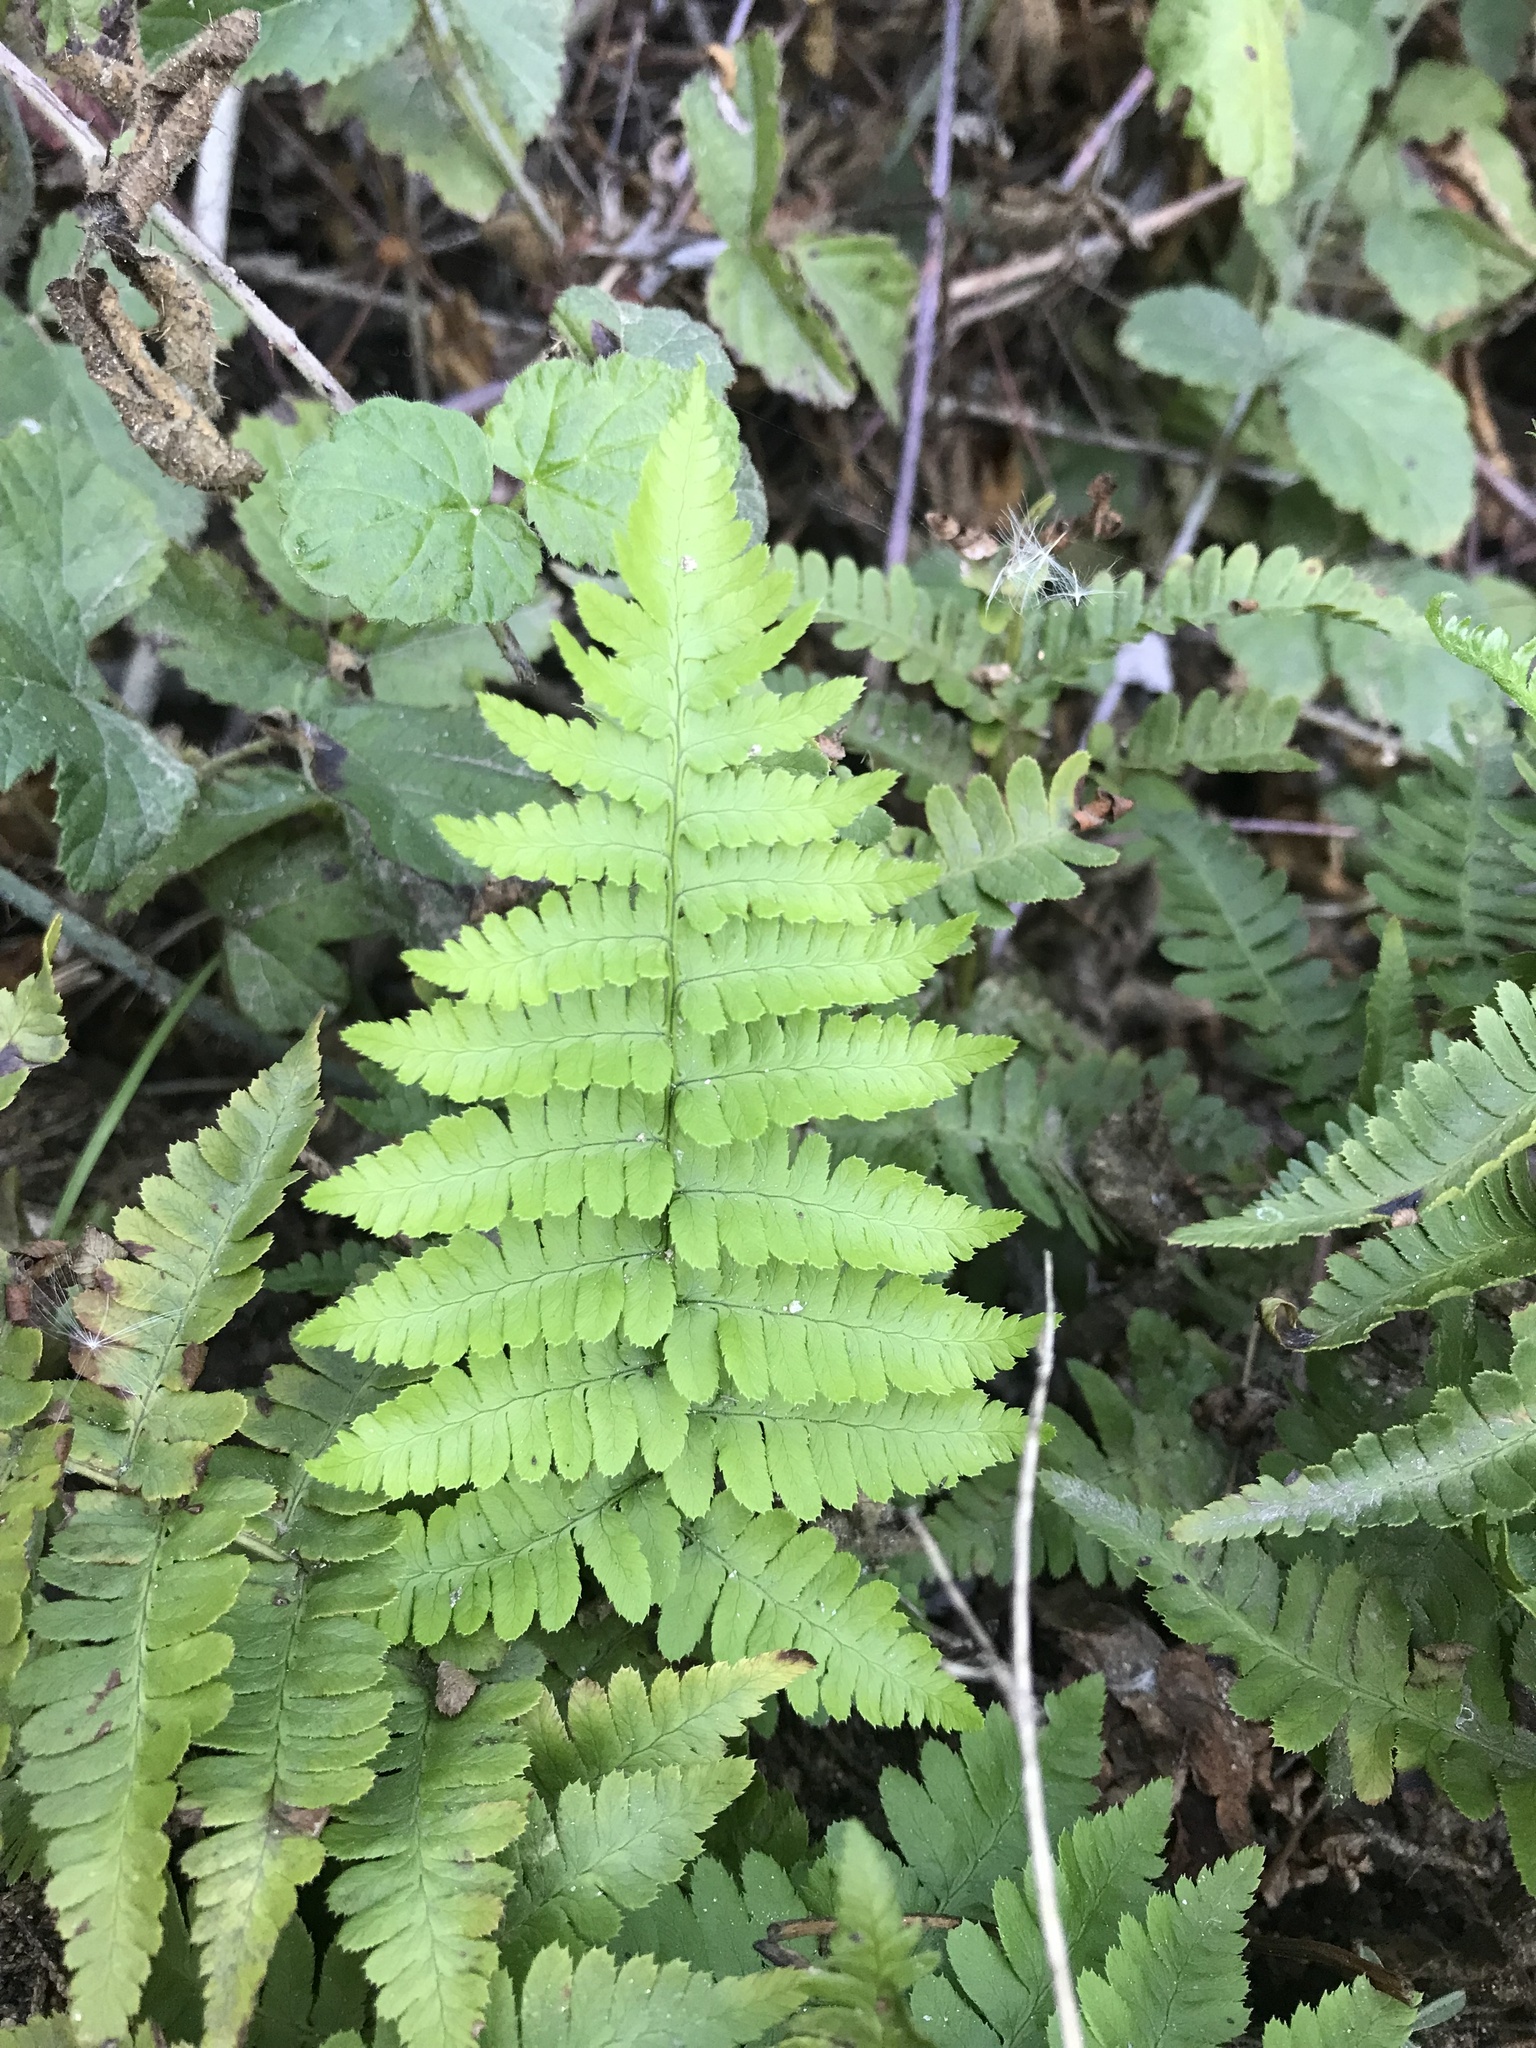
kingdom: Plantae
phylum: Tracheophyta
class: Polypodiopsida
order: Polypodiales
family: Dryopteridaceae
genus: Dryopteris
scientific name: Dryopteris arguta
